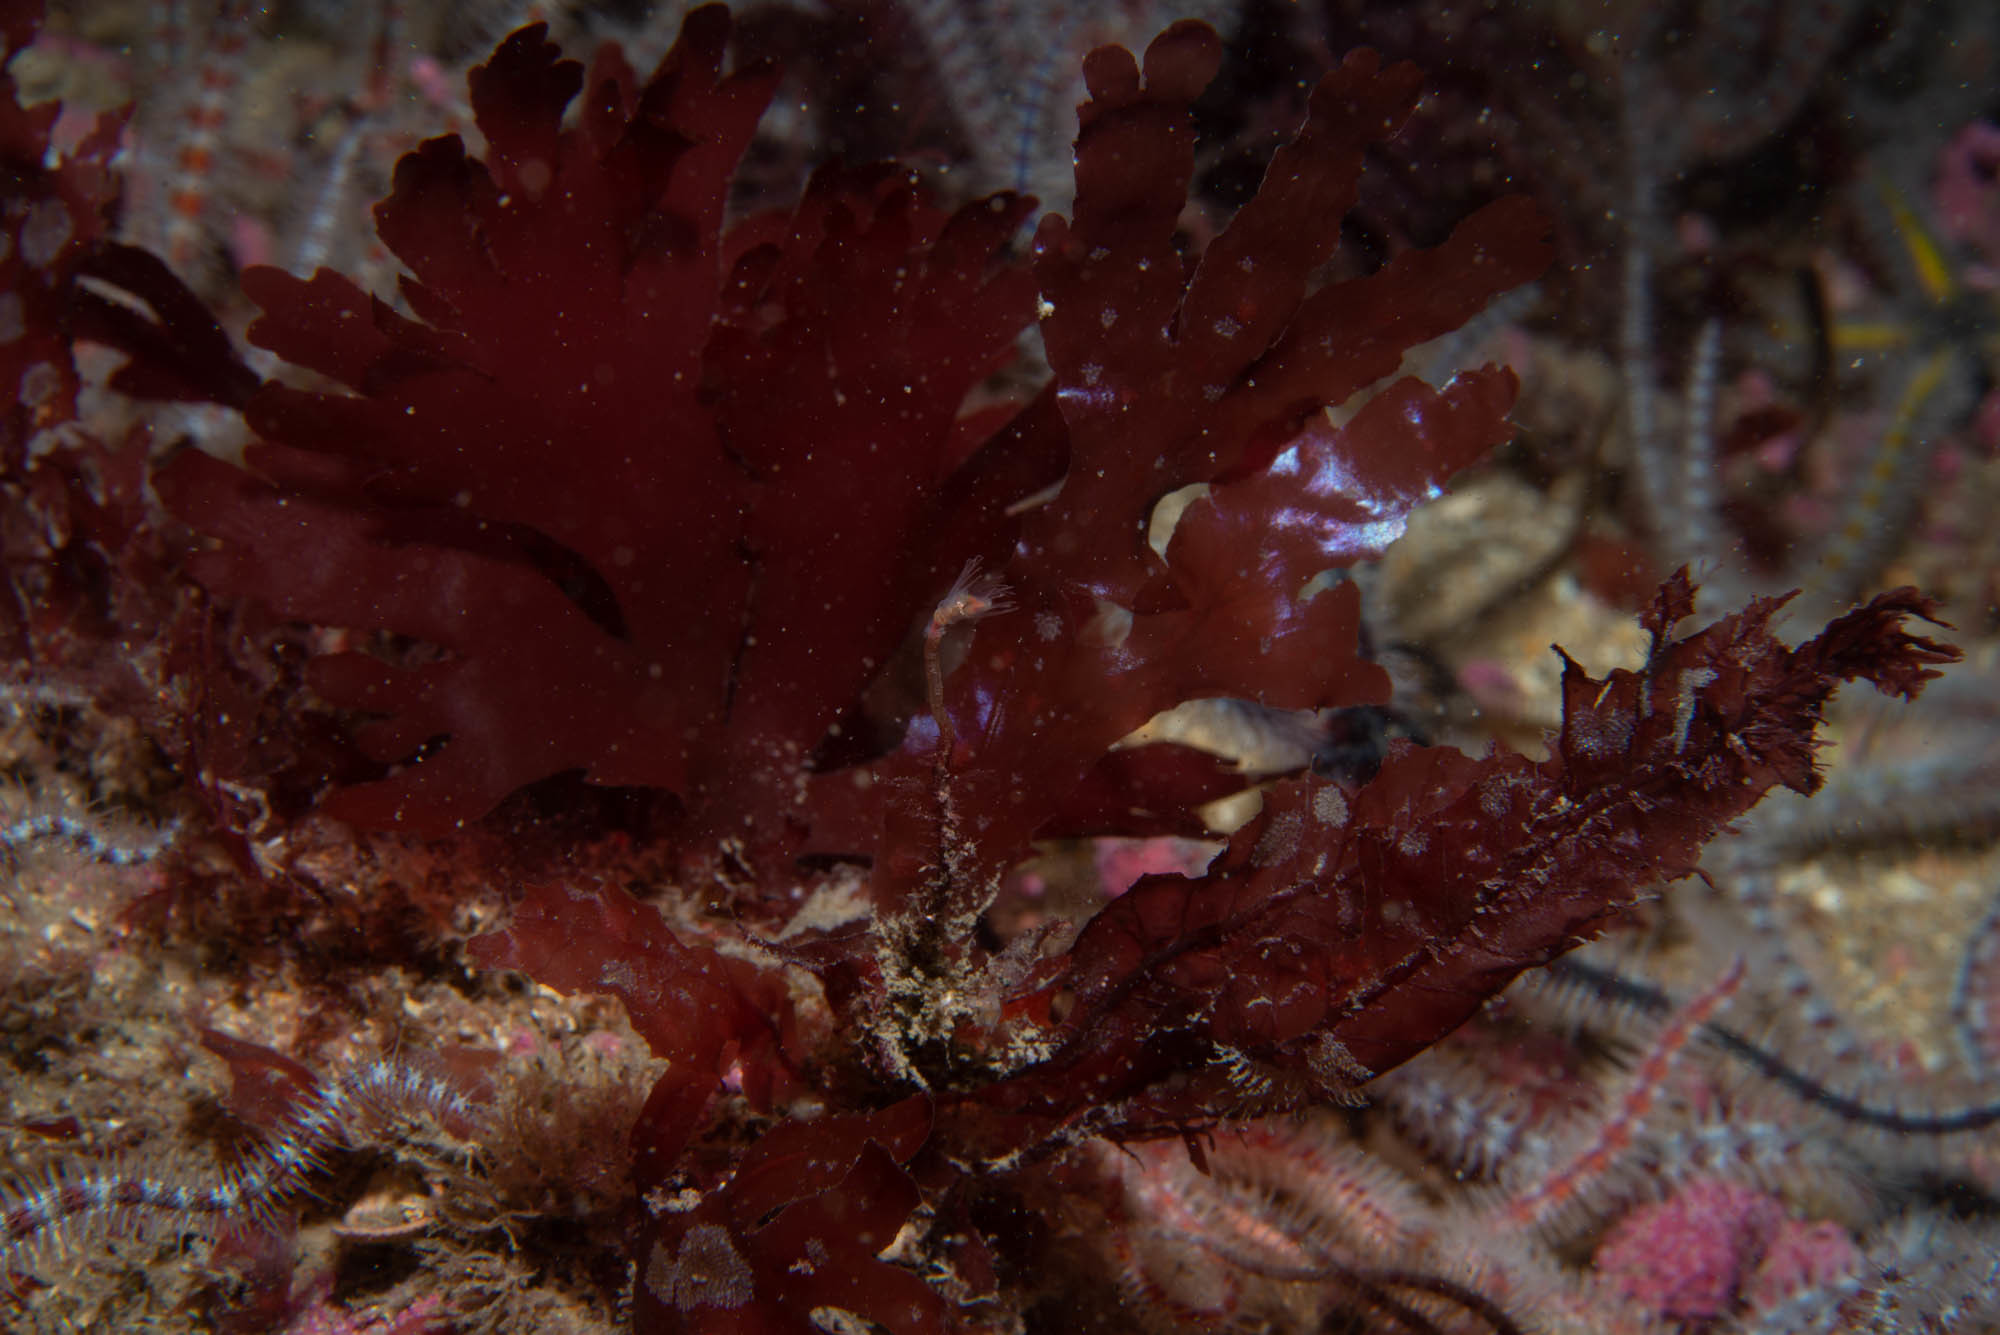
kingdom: Plantae
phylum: Rhodophyta
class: Florideophyceae
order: Gigartinales
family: Kallymeniaceae
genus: Metacallophyllis
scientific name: Metacallophyllis spec
